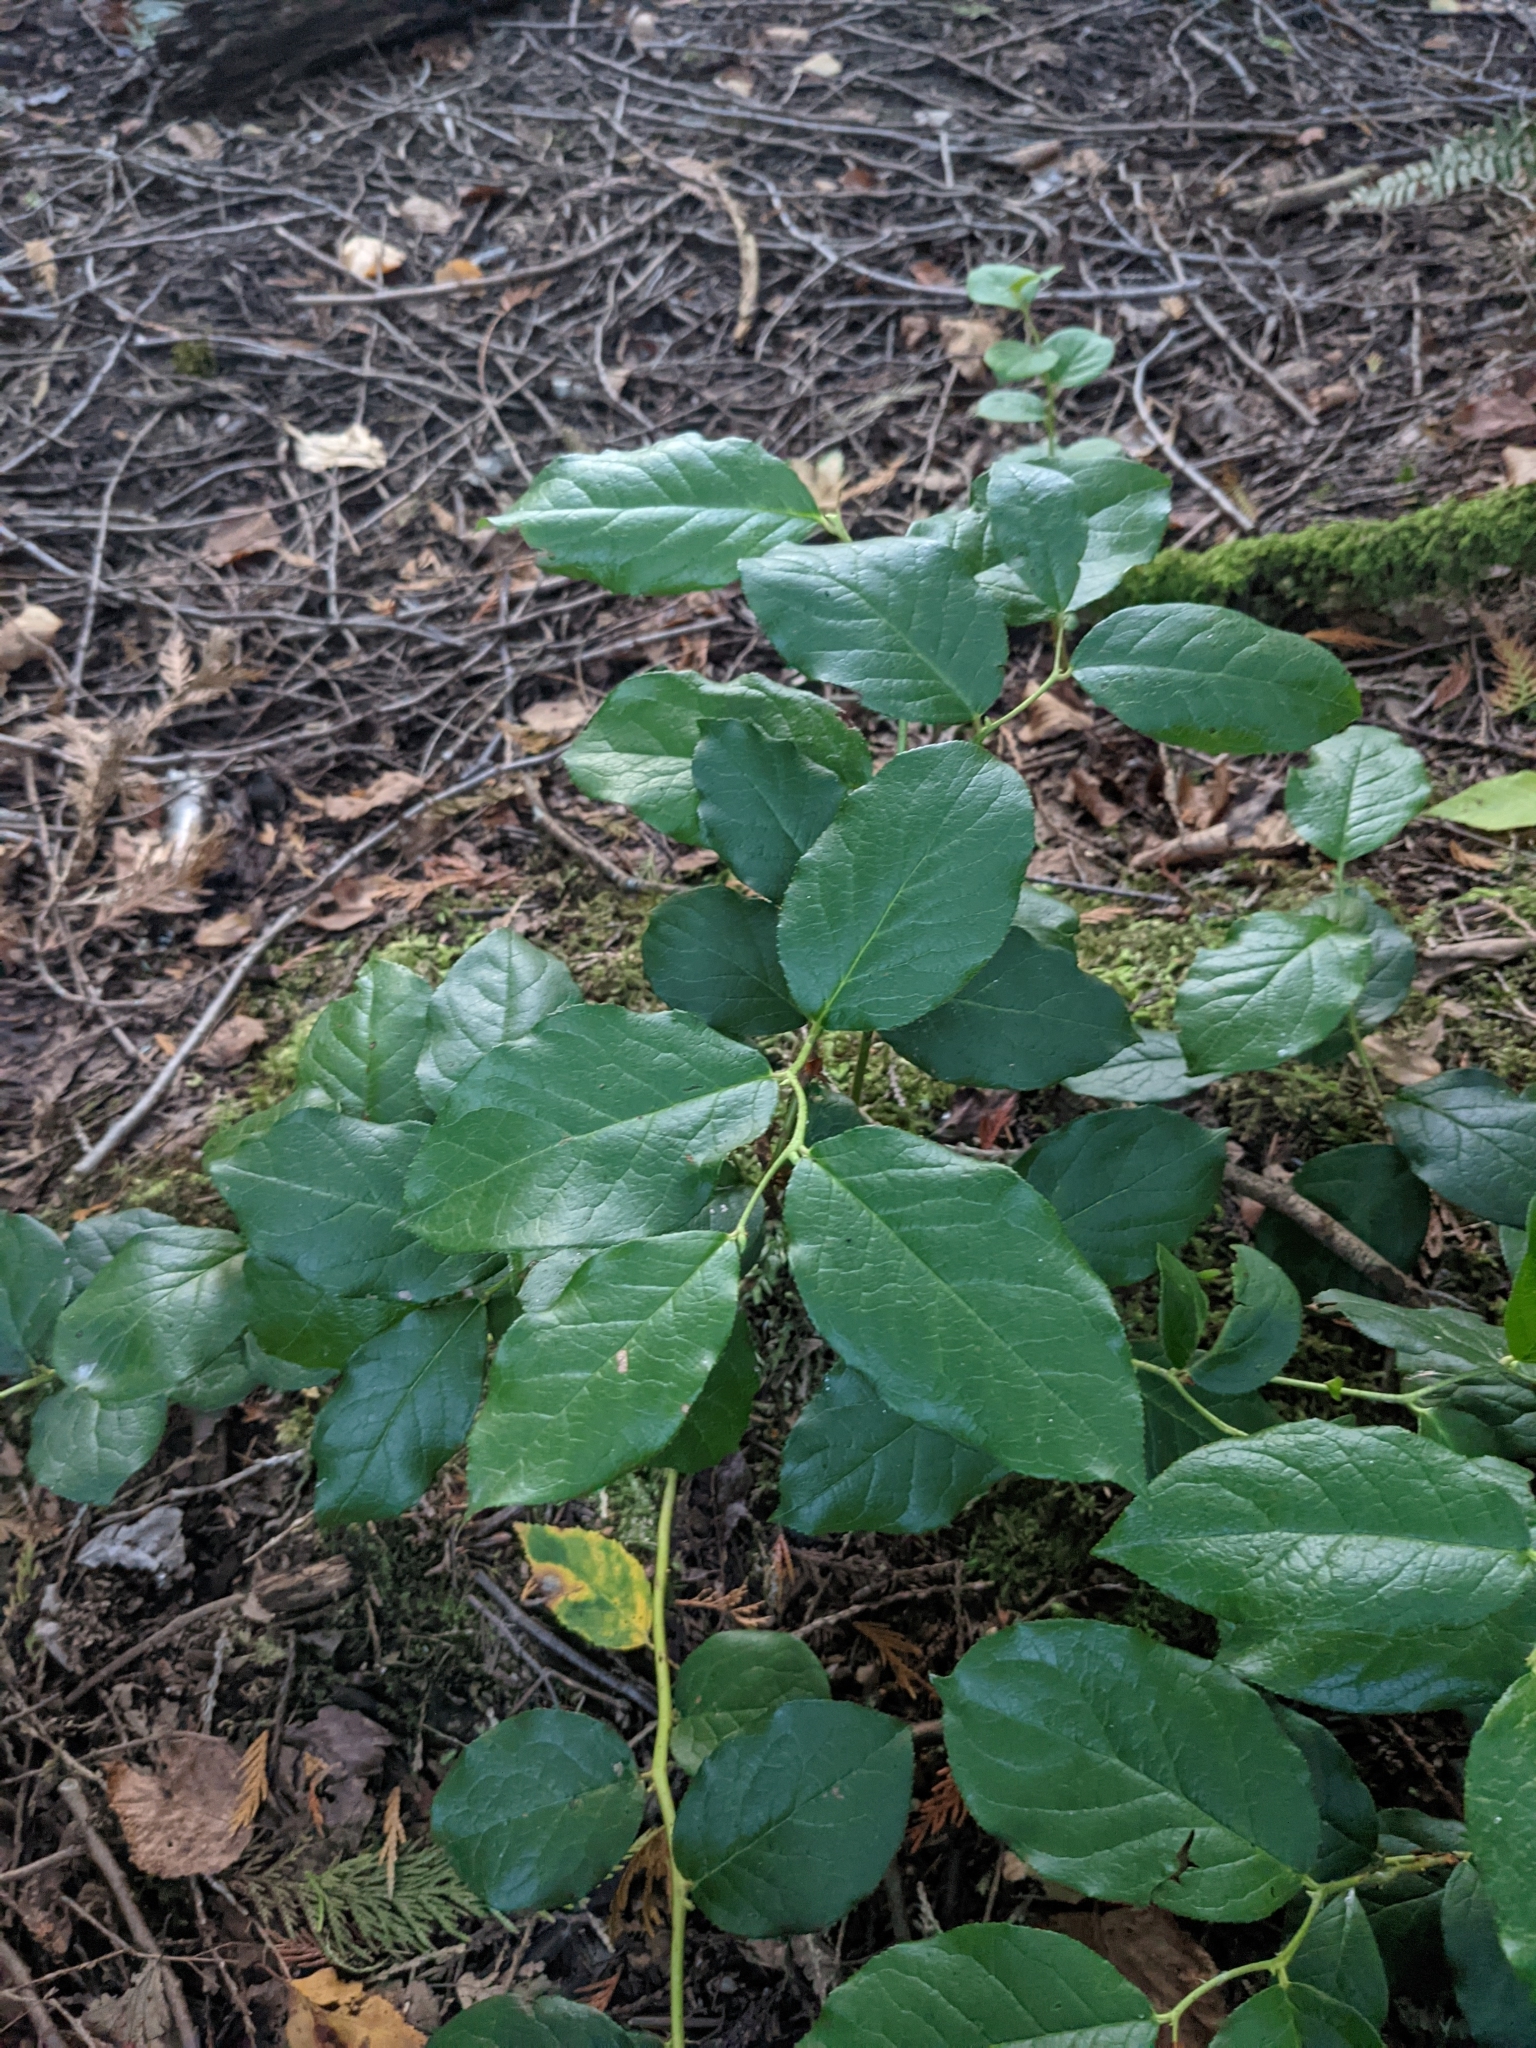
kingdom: Plantae
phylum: Tracheophyta
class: Magnoliopsida
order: Ericales
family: Ericaceae
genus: Gaultheria
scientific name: Gaultheria shallon
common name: Shallon
